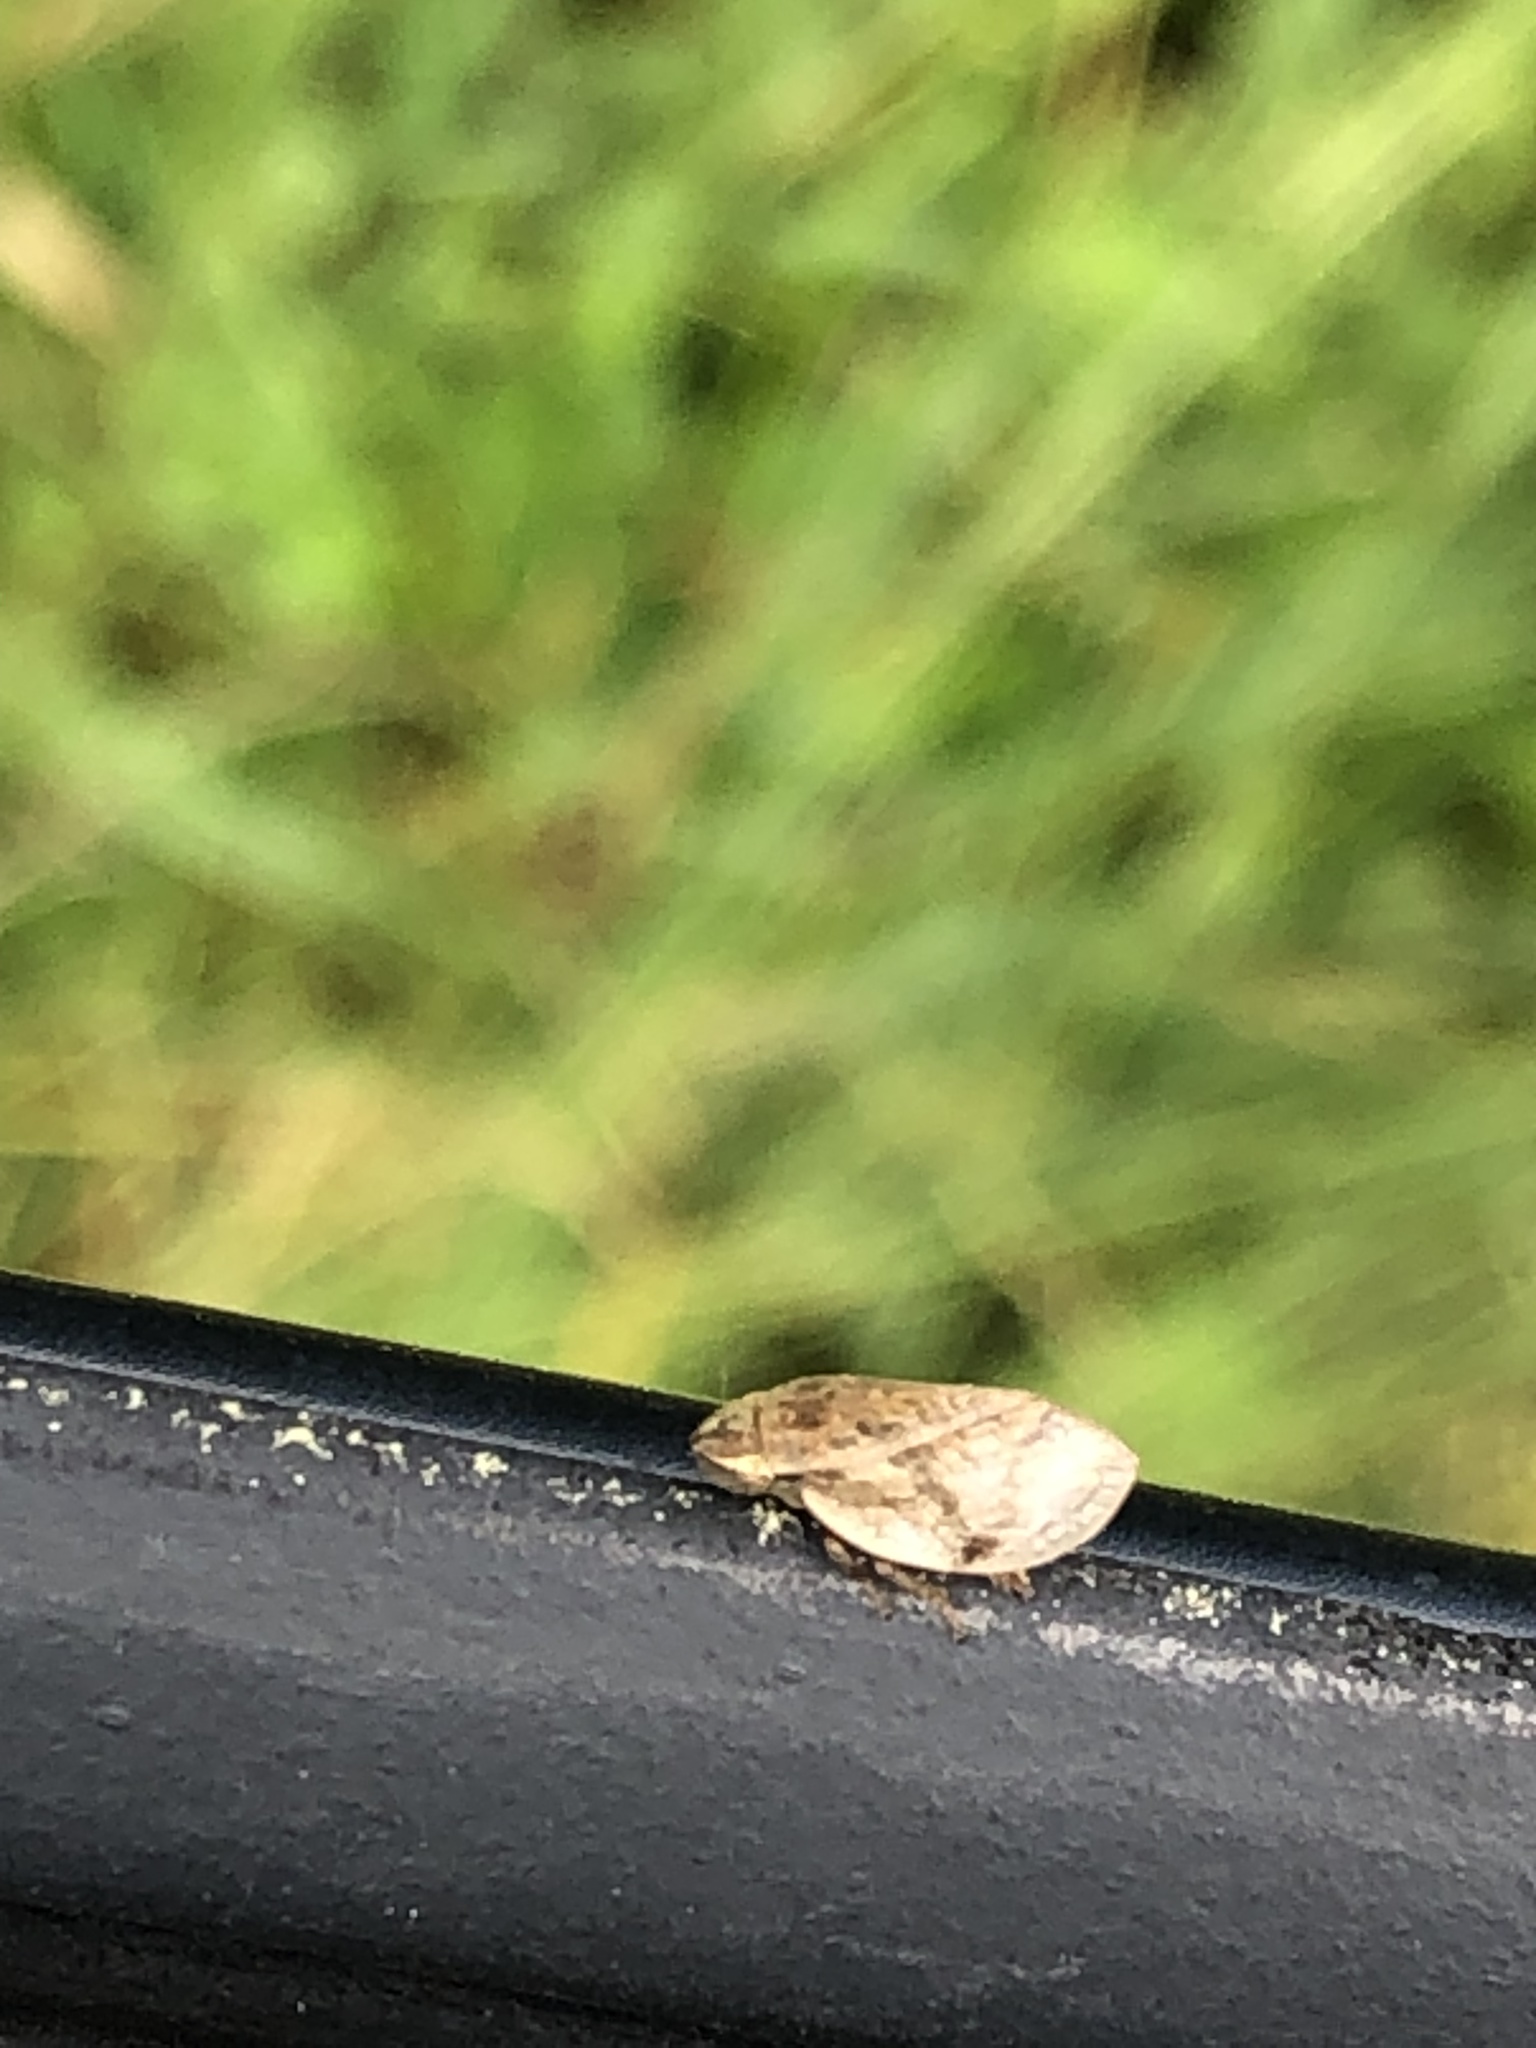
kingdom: Animalia
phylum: Arthropoda
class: Insecta
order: Hemiptera
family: Aphrophoridae
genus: Lepyronia
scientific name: Lepyronia coleoptrata
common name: Leafhopper
